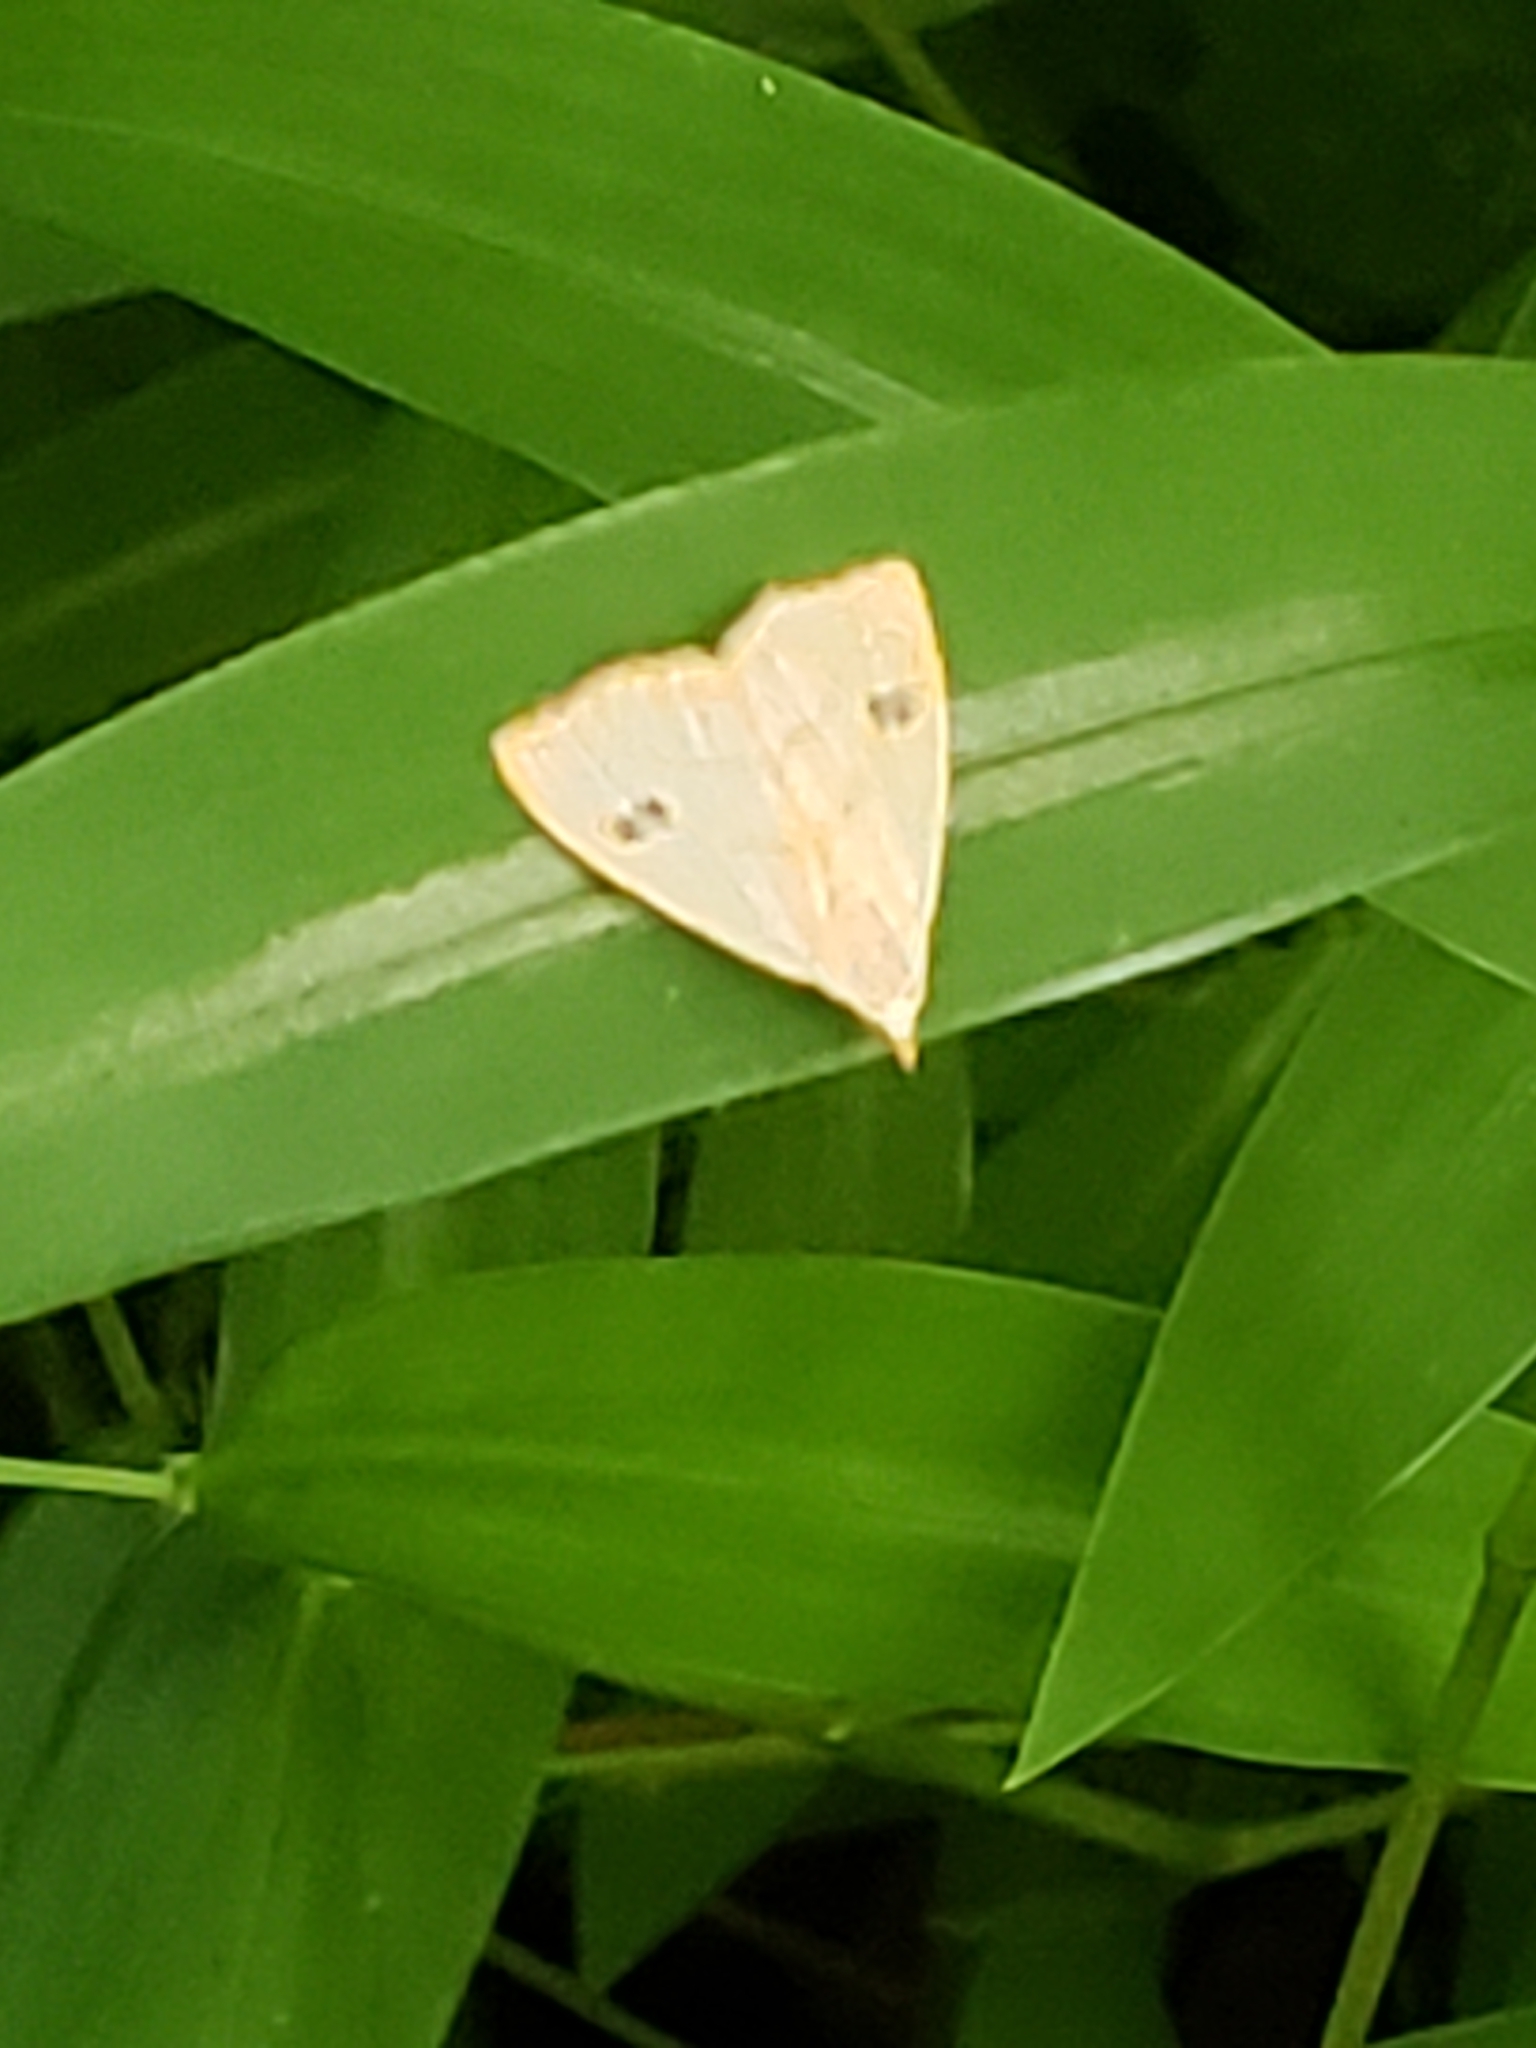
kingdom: Animalia
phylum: Arthropoda
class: Insecta
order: Lepidoptera
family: Erebidae
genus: Rivula
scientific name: Rivula propinqualis
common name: Spotted grass moth
